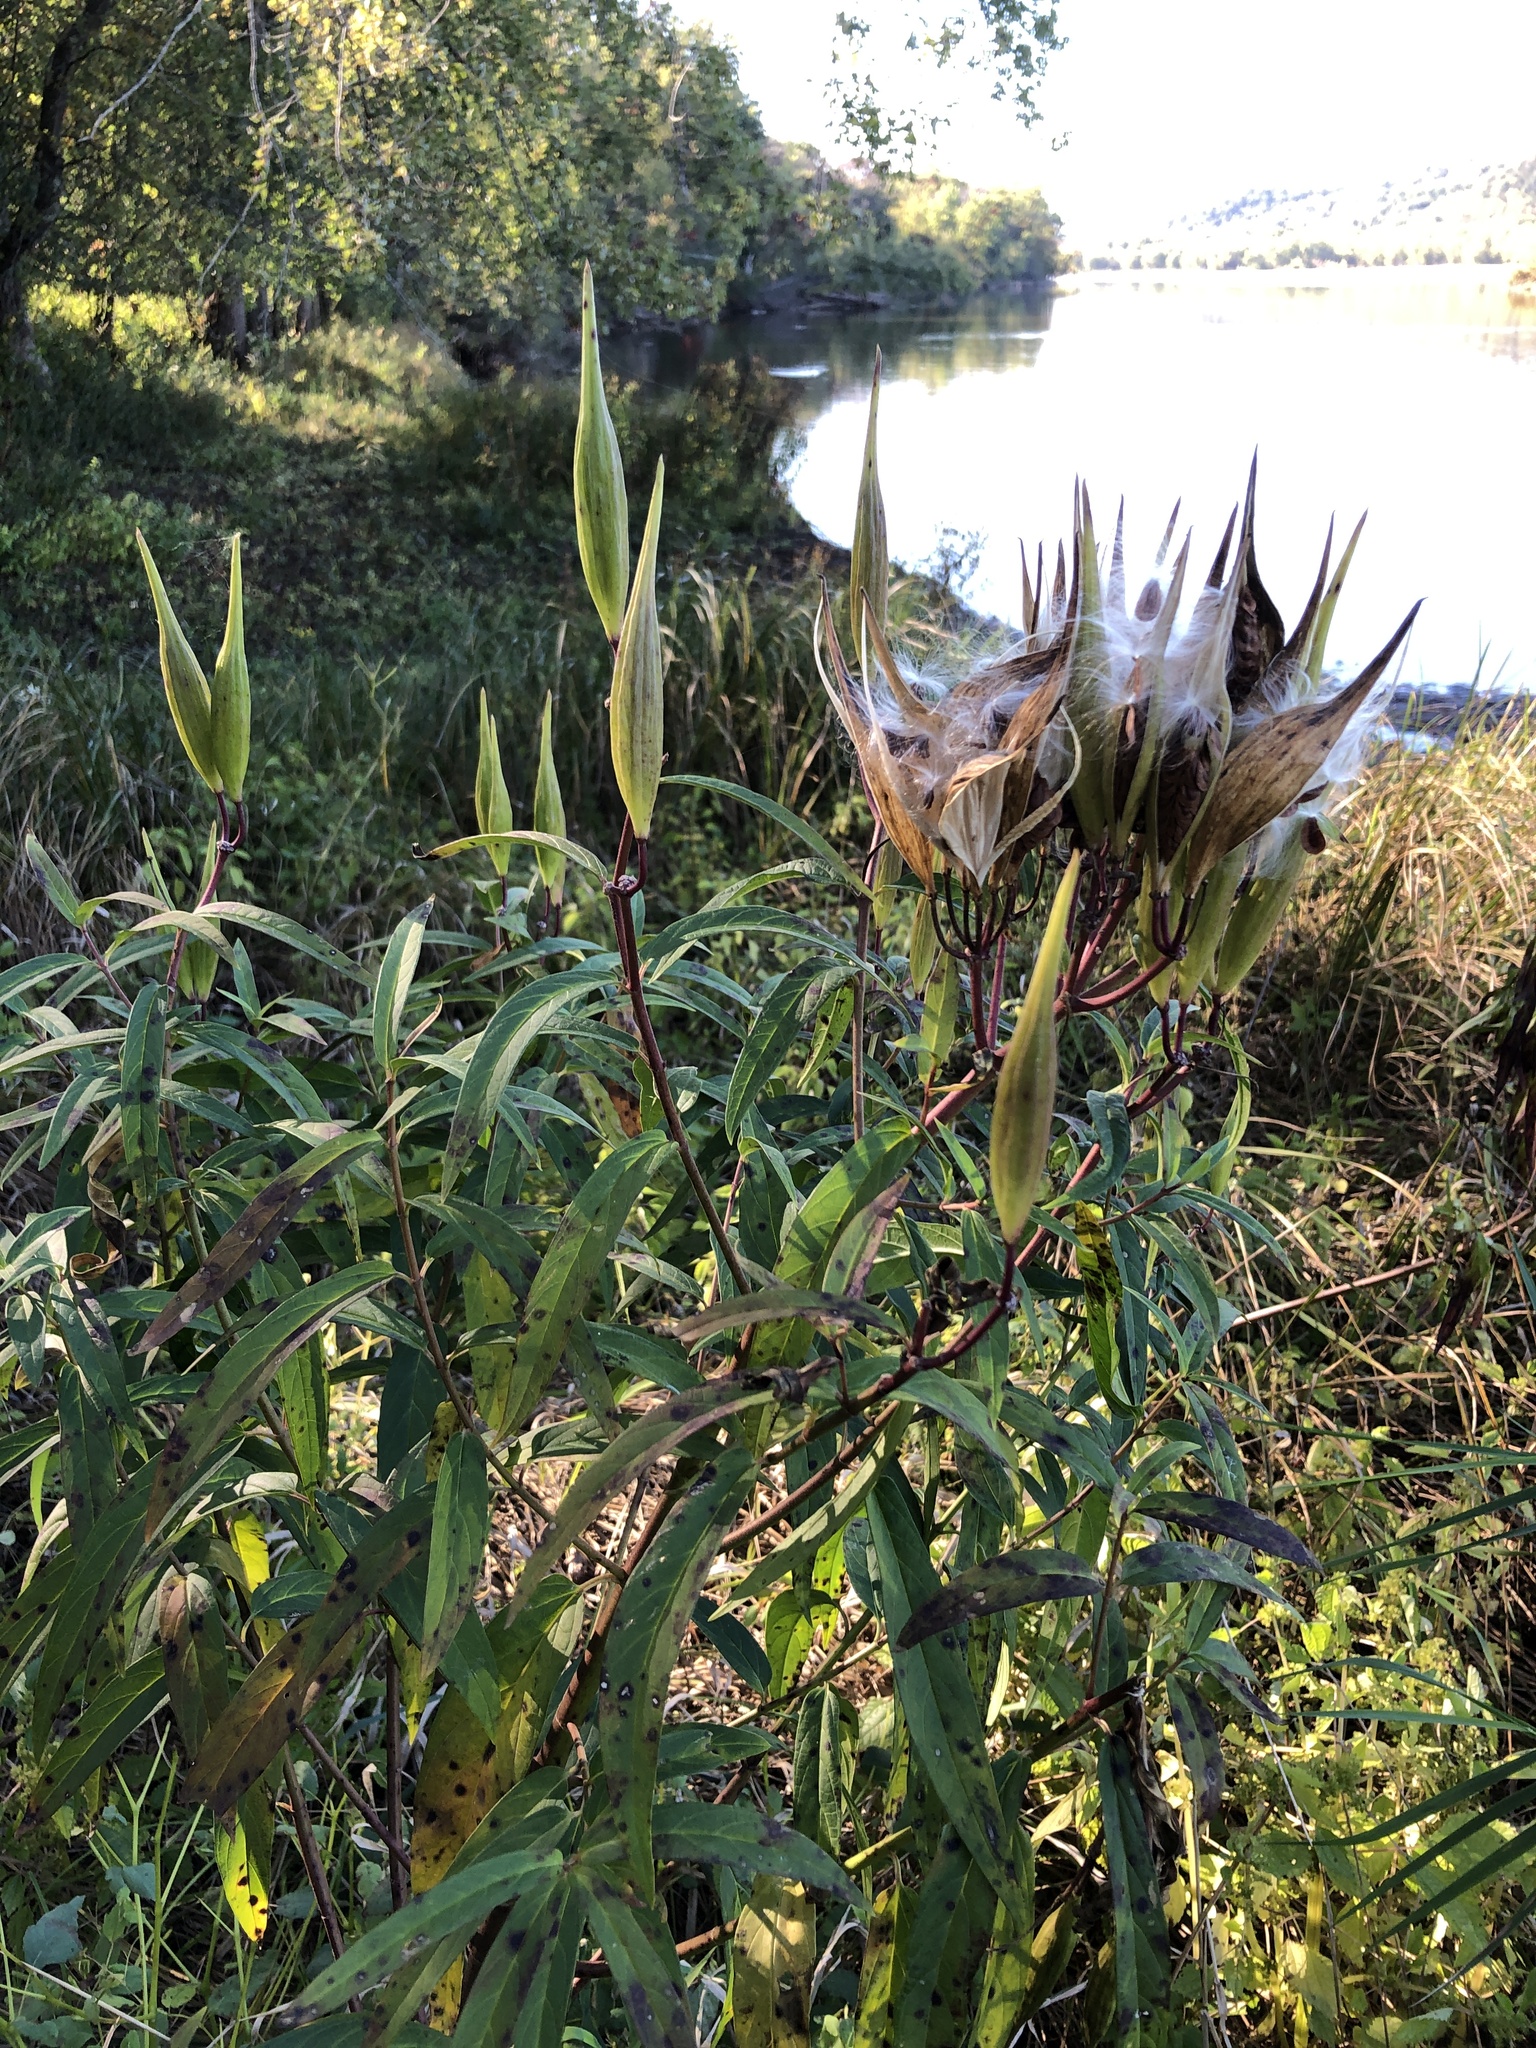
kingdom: Plantae
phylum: Tracheophyta
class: Magnoliopsida
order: Gentianales
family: Apocynaceae
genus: Asclepias
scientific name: Asclepias incarnata
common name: Swamp milkweed
